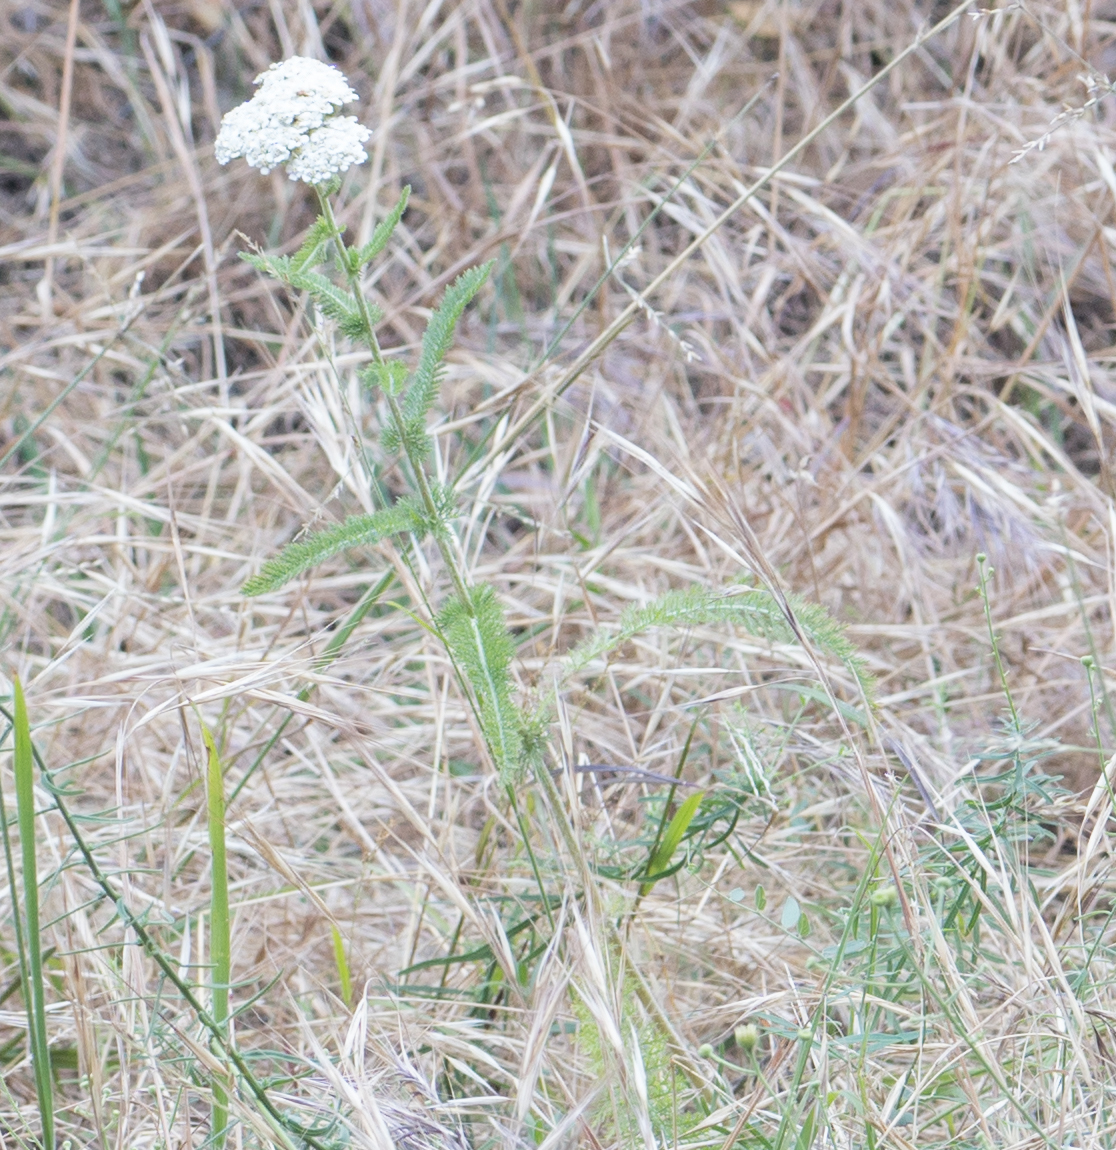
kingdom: Plantae
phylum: Tracheophyta
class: Magnoliopsida
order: Asterales
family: Asteraceae
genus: Achillea
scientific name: Achillea millefolium
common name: Yarrow
